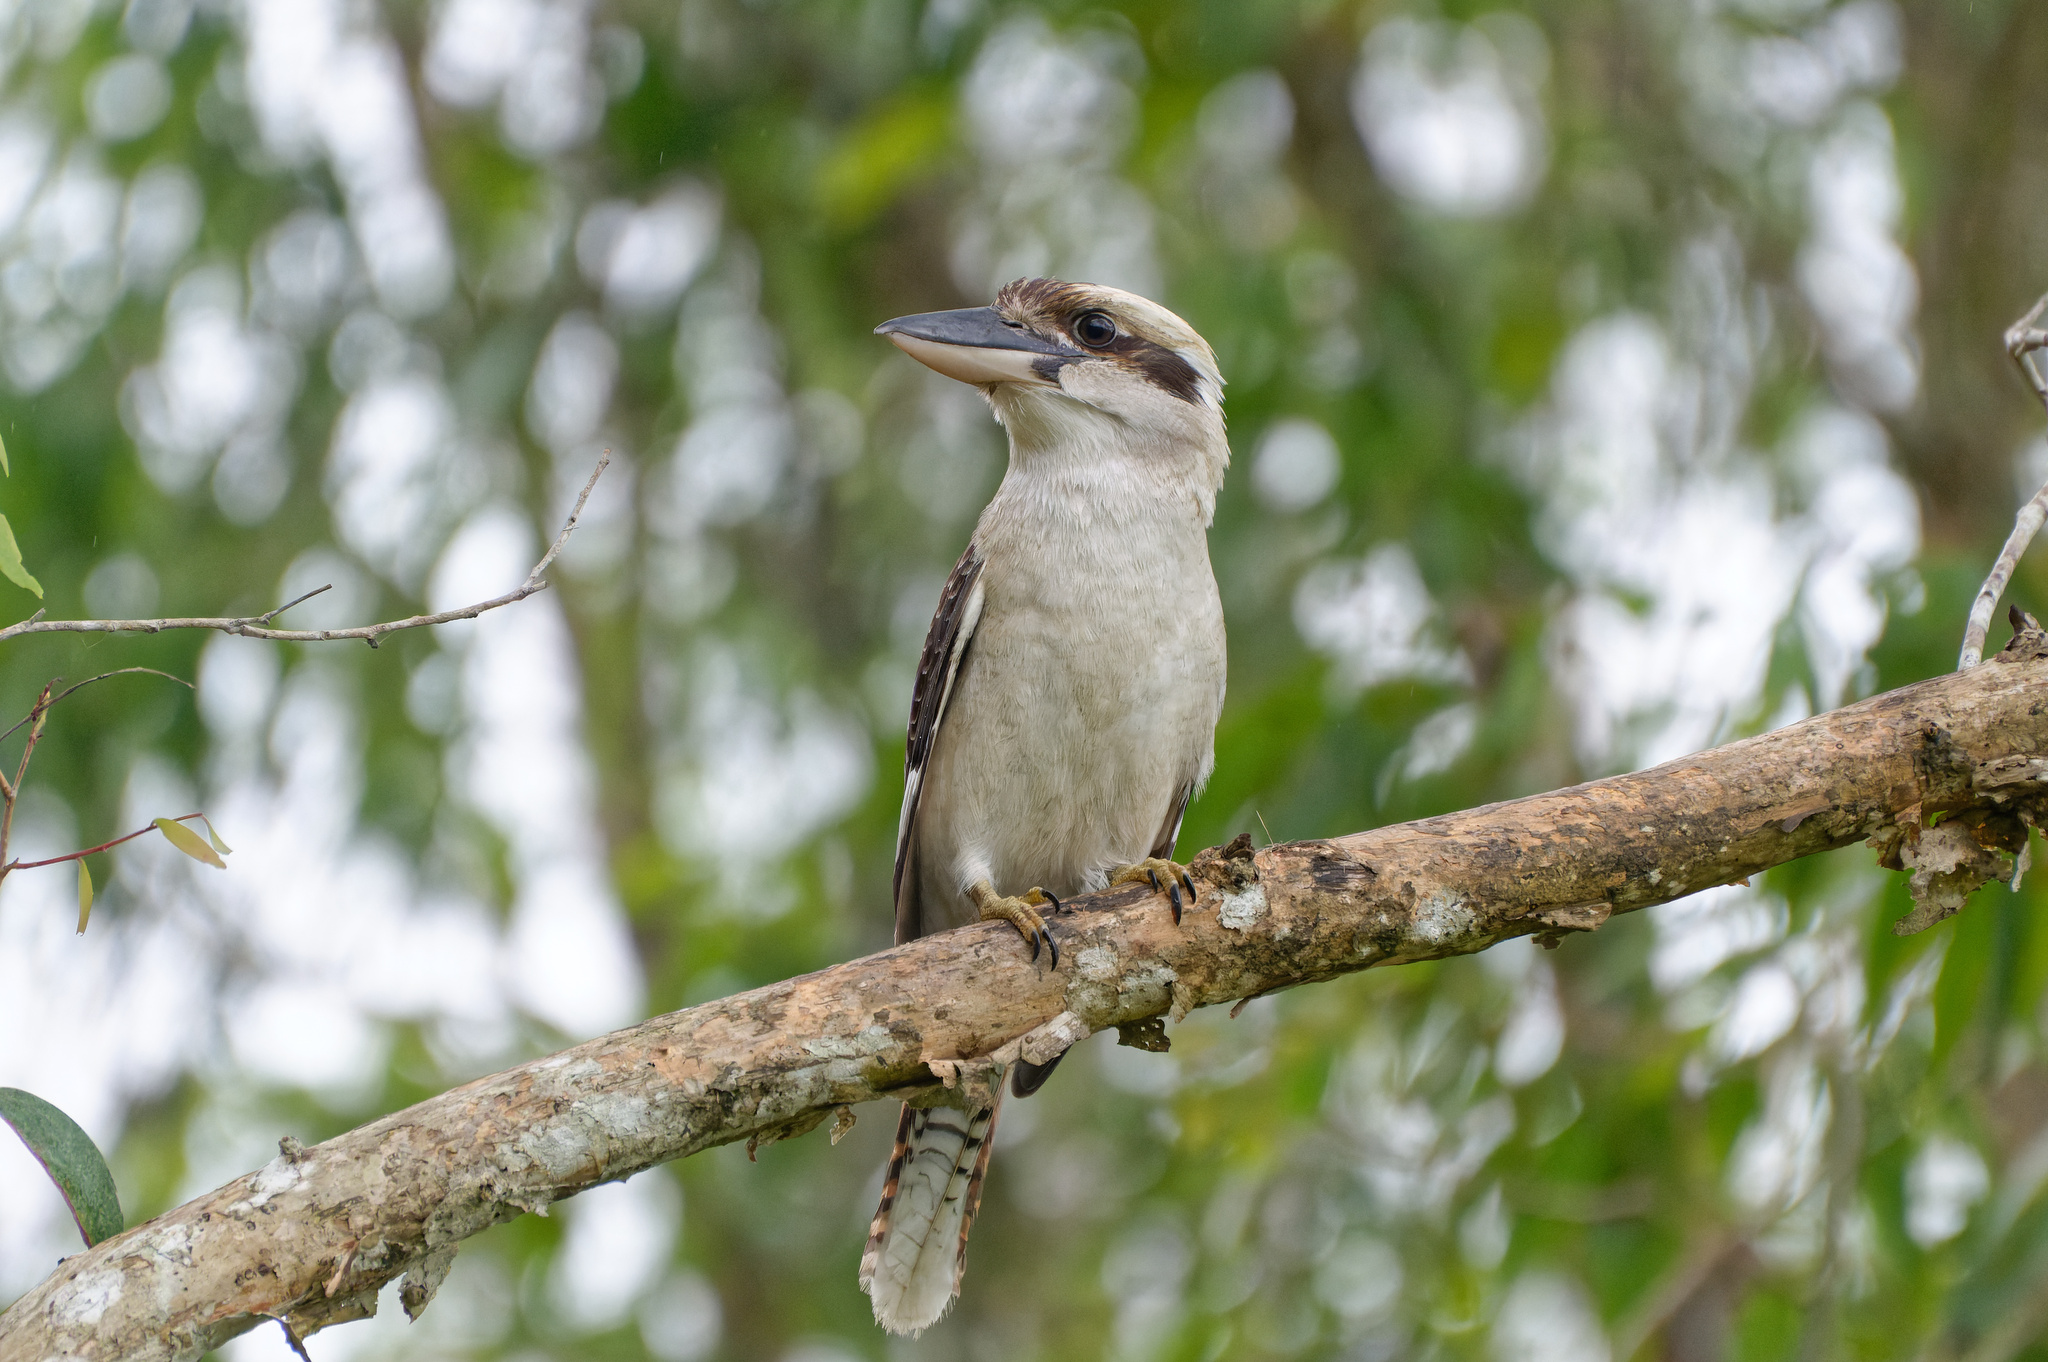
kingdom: Animalia
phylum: Chordata
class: Aves
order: Coraciiformes
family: Alcedinidae
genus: Dacelo
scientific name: Dacelo novaeguineae
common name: Laughing kookaburra
